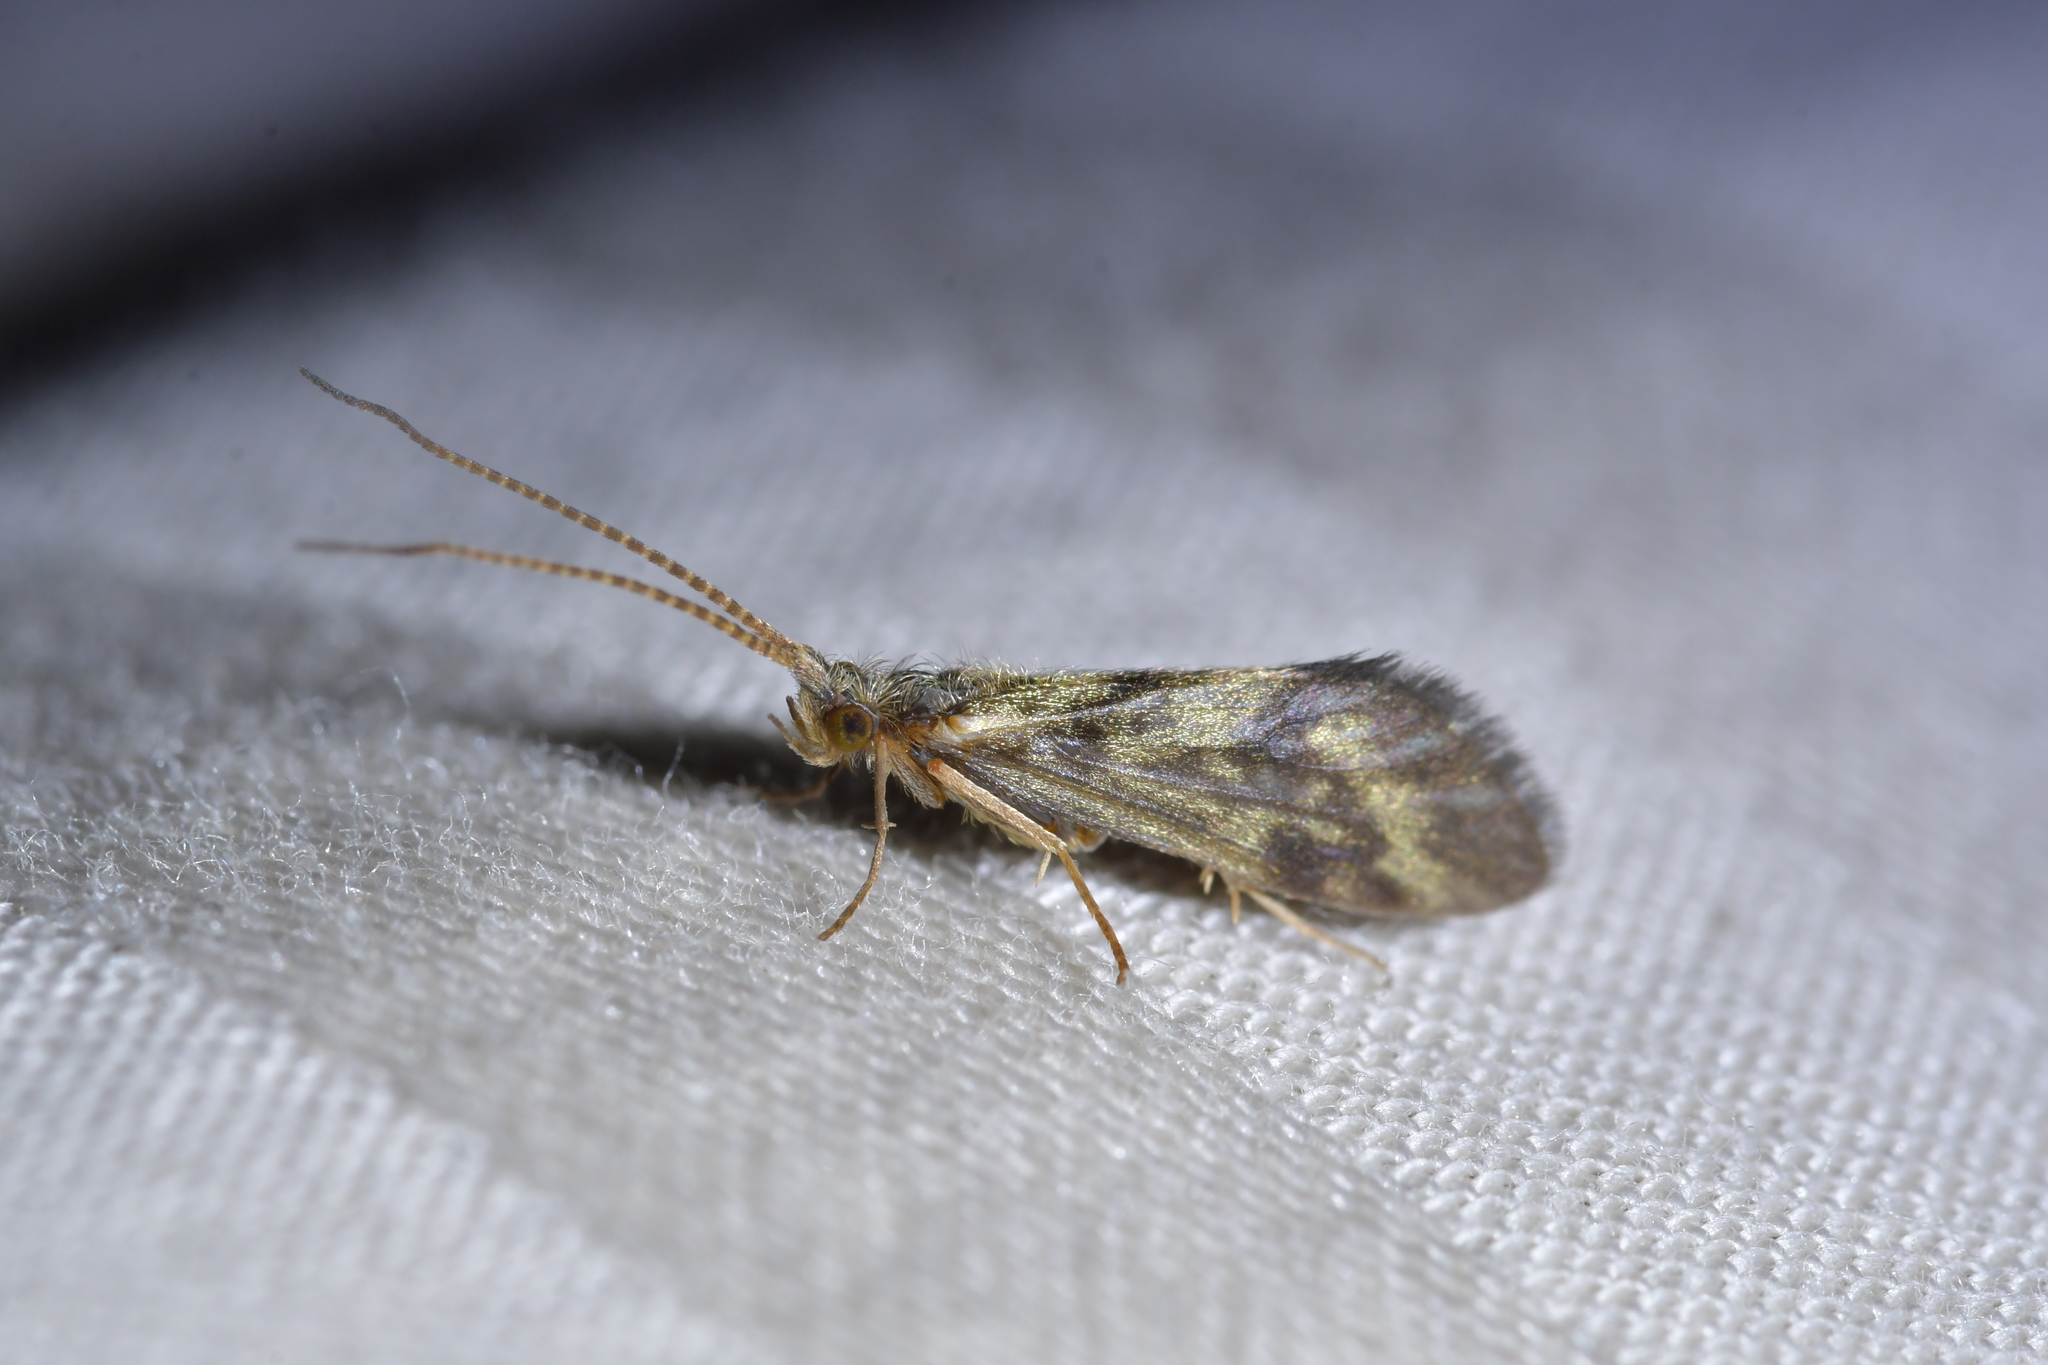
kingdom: Animalia
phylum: Arthropoda
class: Insecta
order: Trichoptera
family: Conoesucidae
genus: Pycnocentrodes
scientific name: Pycnocentrodes aureolus
